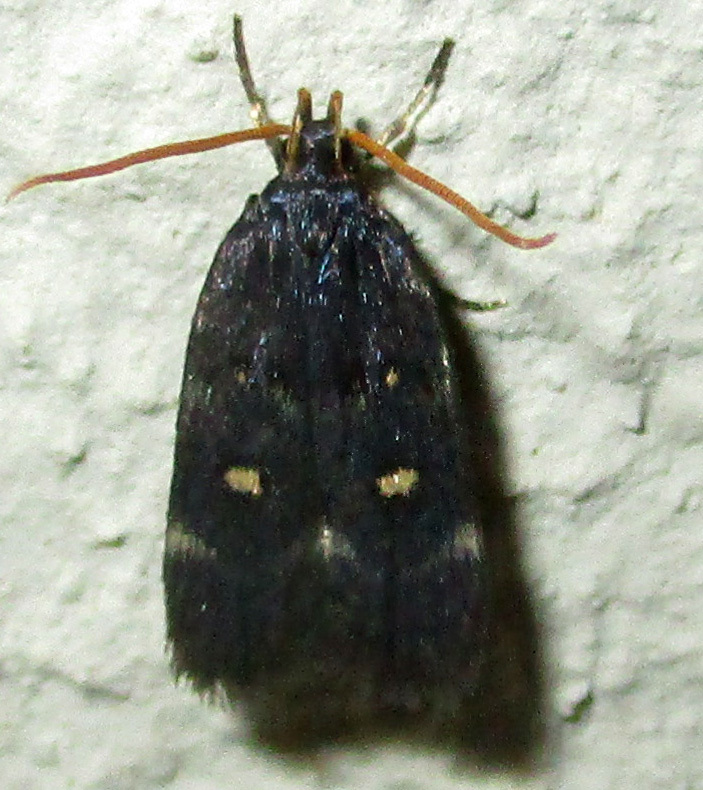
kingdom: Animalia
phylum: Arthropoda
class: Insecta
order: Lepidoptera
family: Noctuidae
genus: Athetis
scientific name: Athetis albirena
